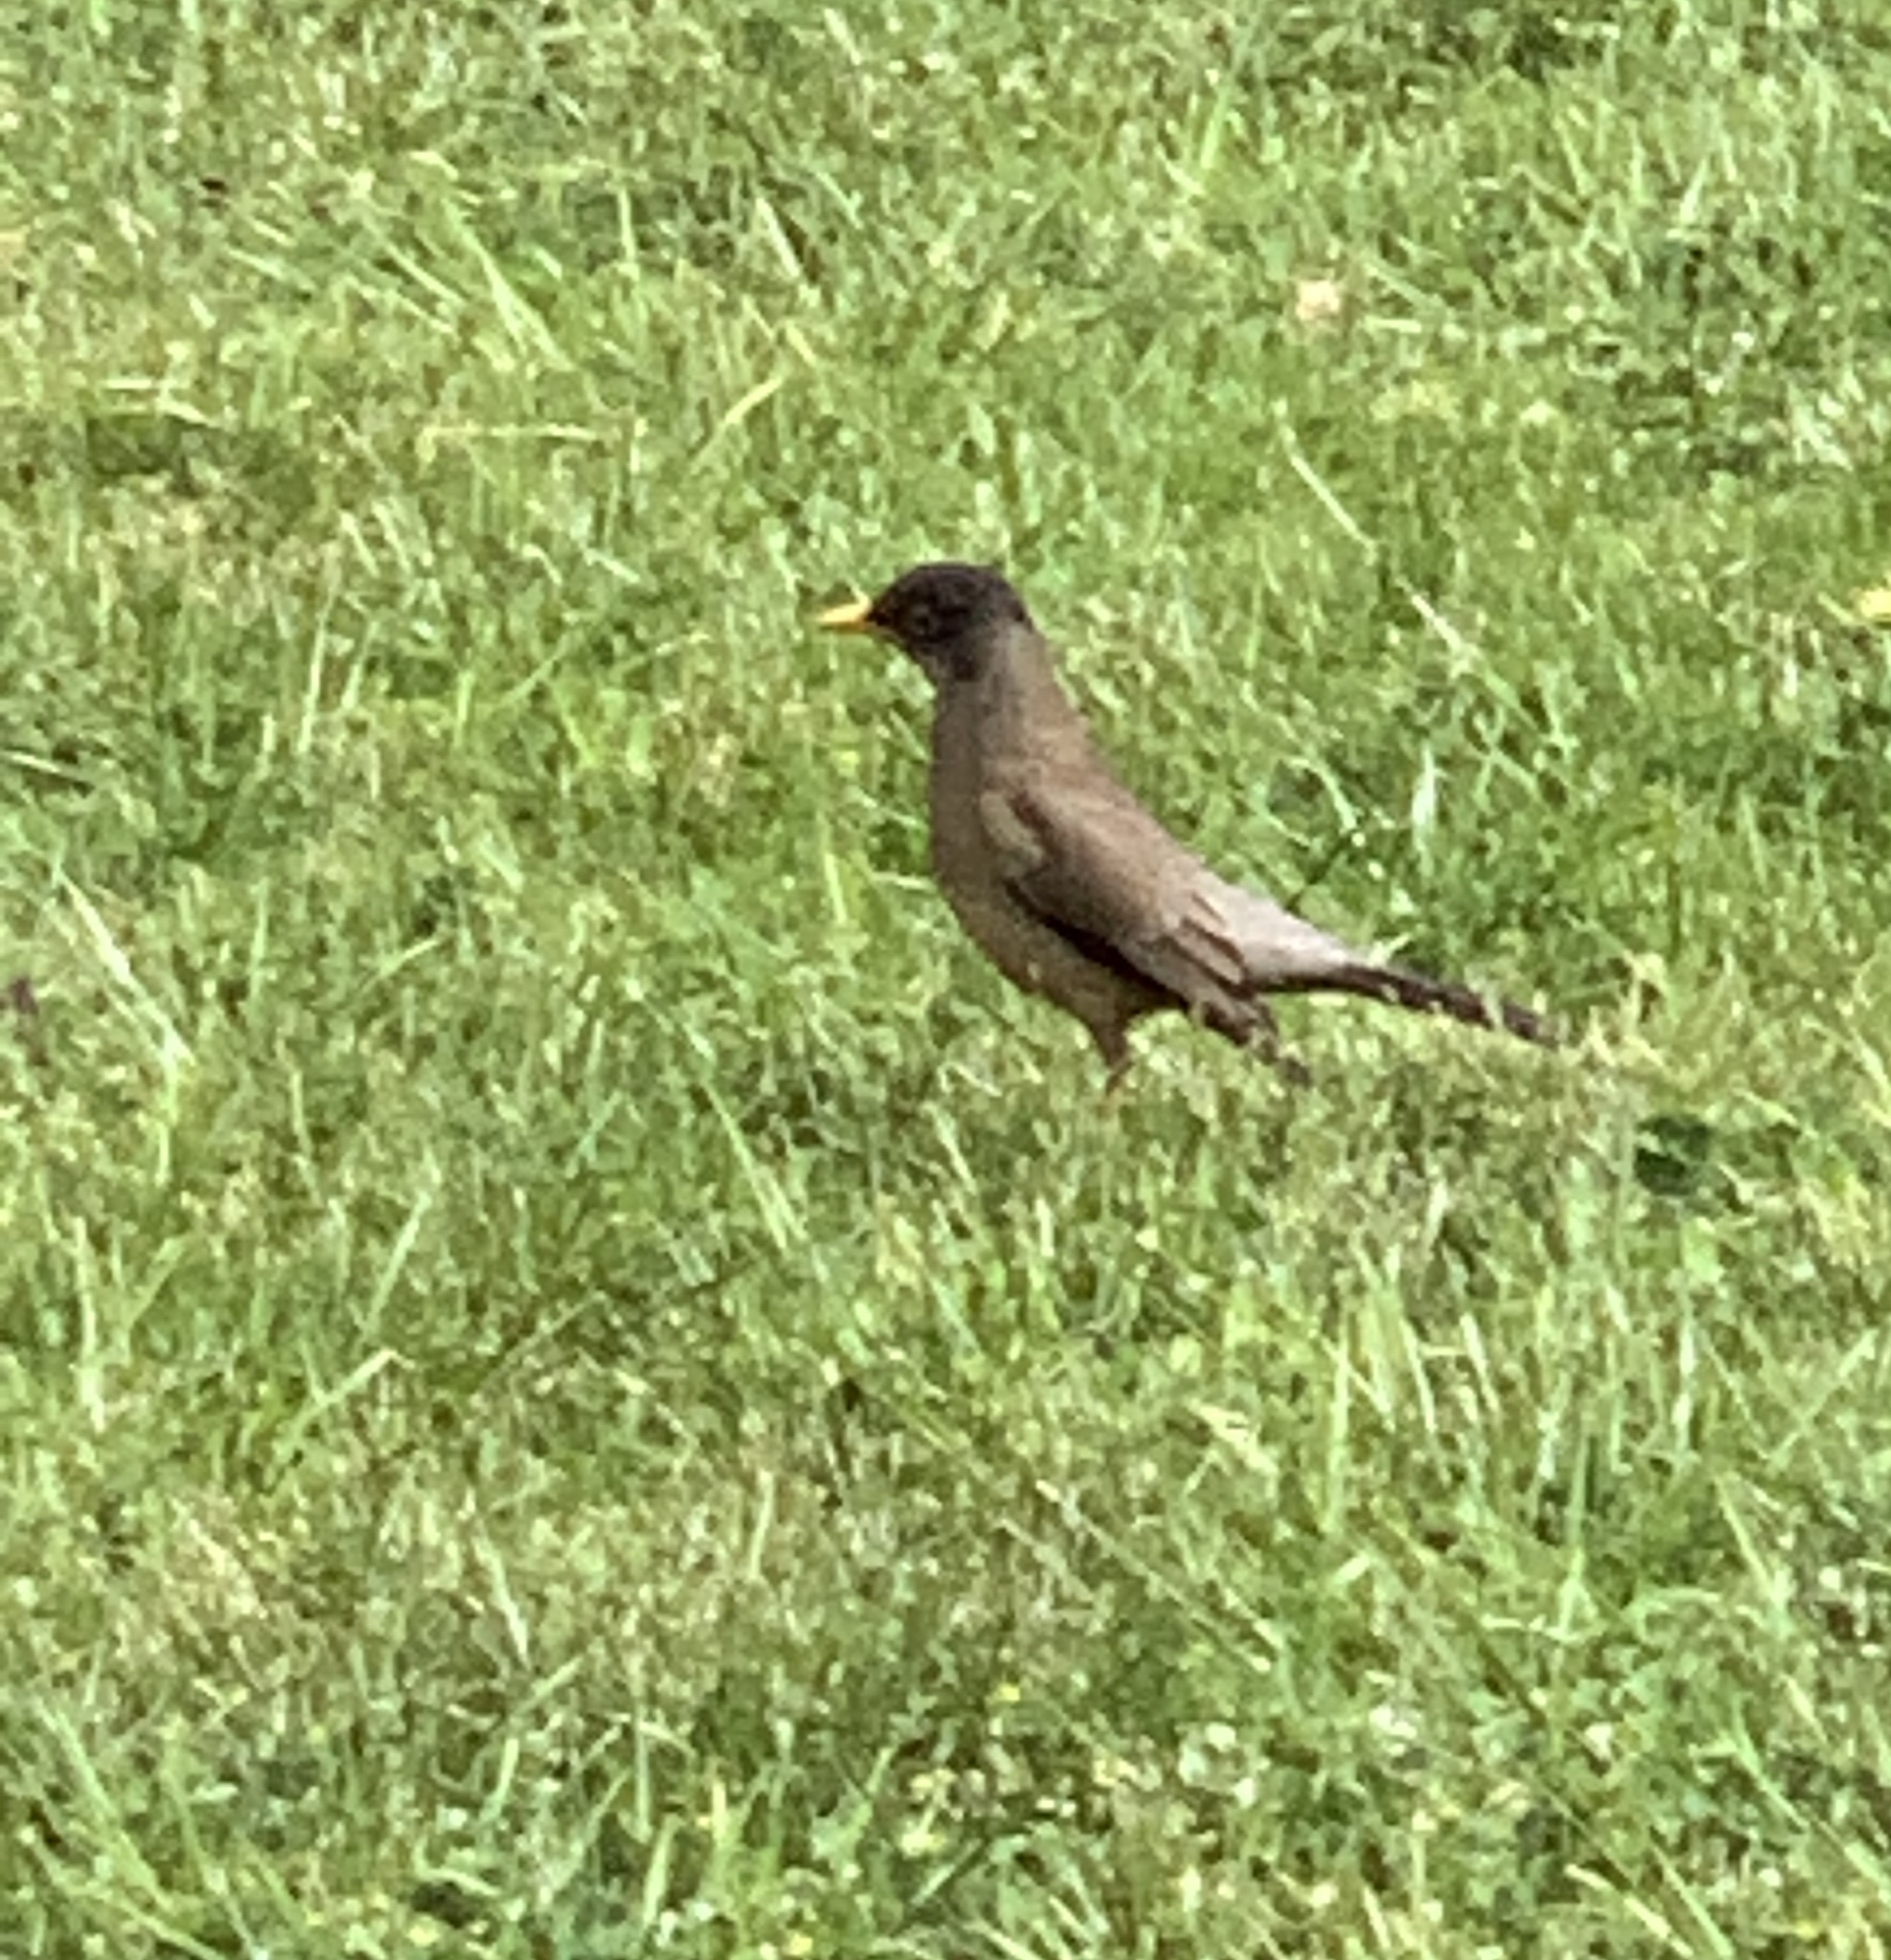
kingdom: Animalia
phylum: Chordata
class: Aves
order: Passeriformes
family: Turdidae
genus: Turdus
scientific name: Turdus falcklandii
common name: Austral thrush
